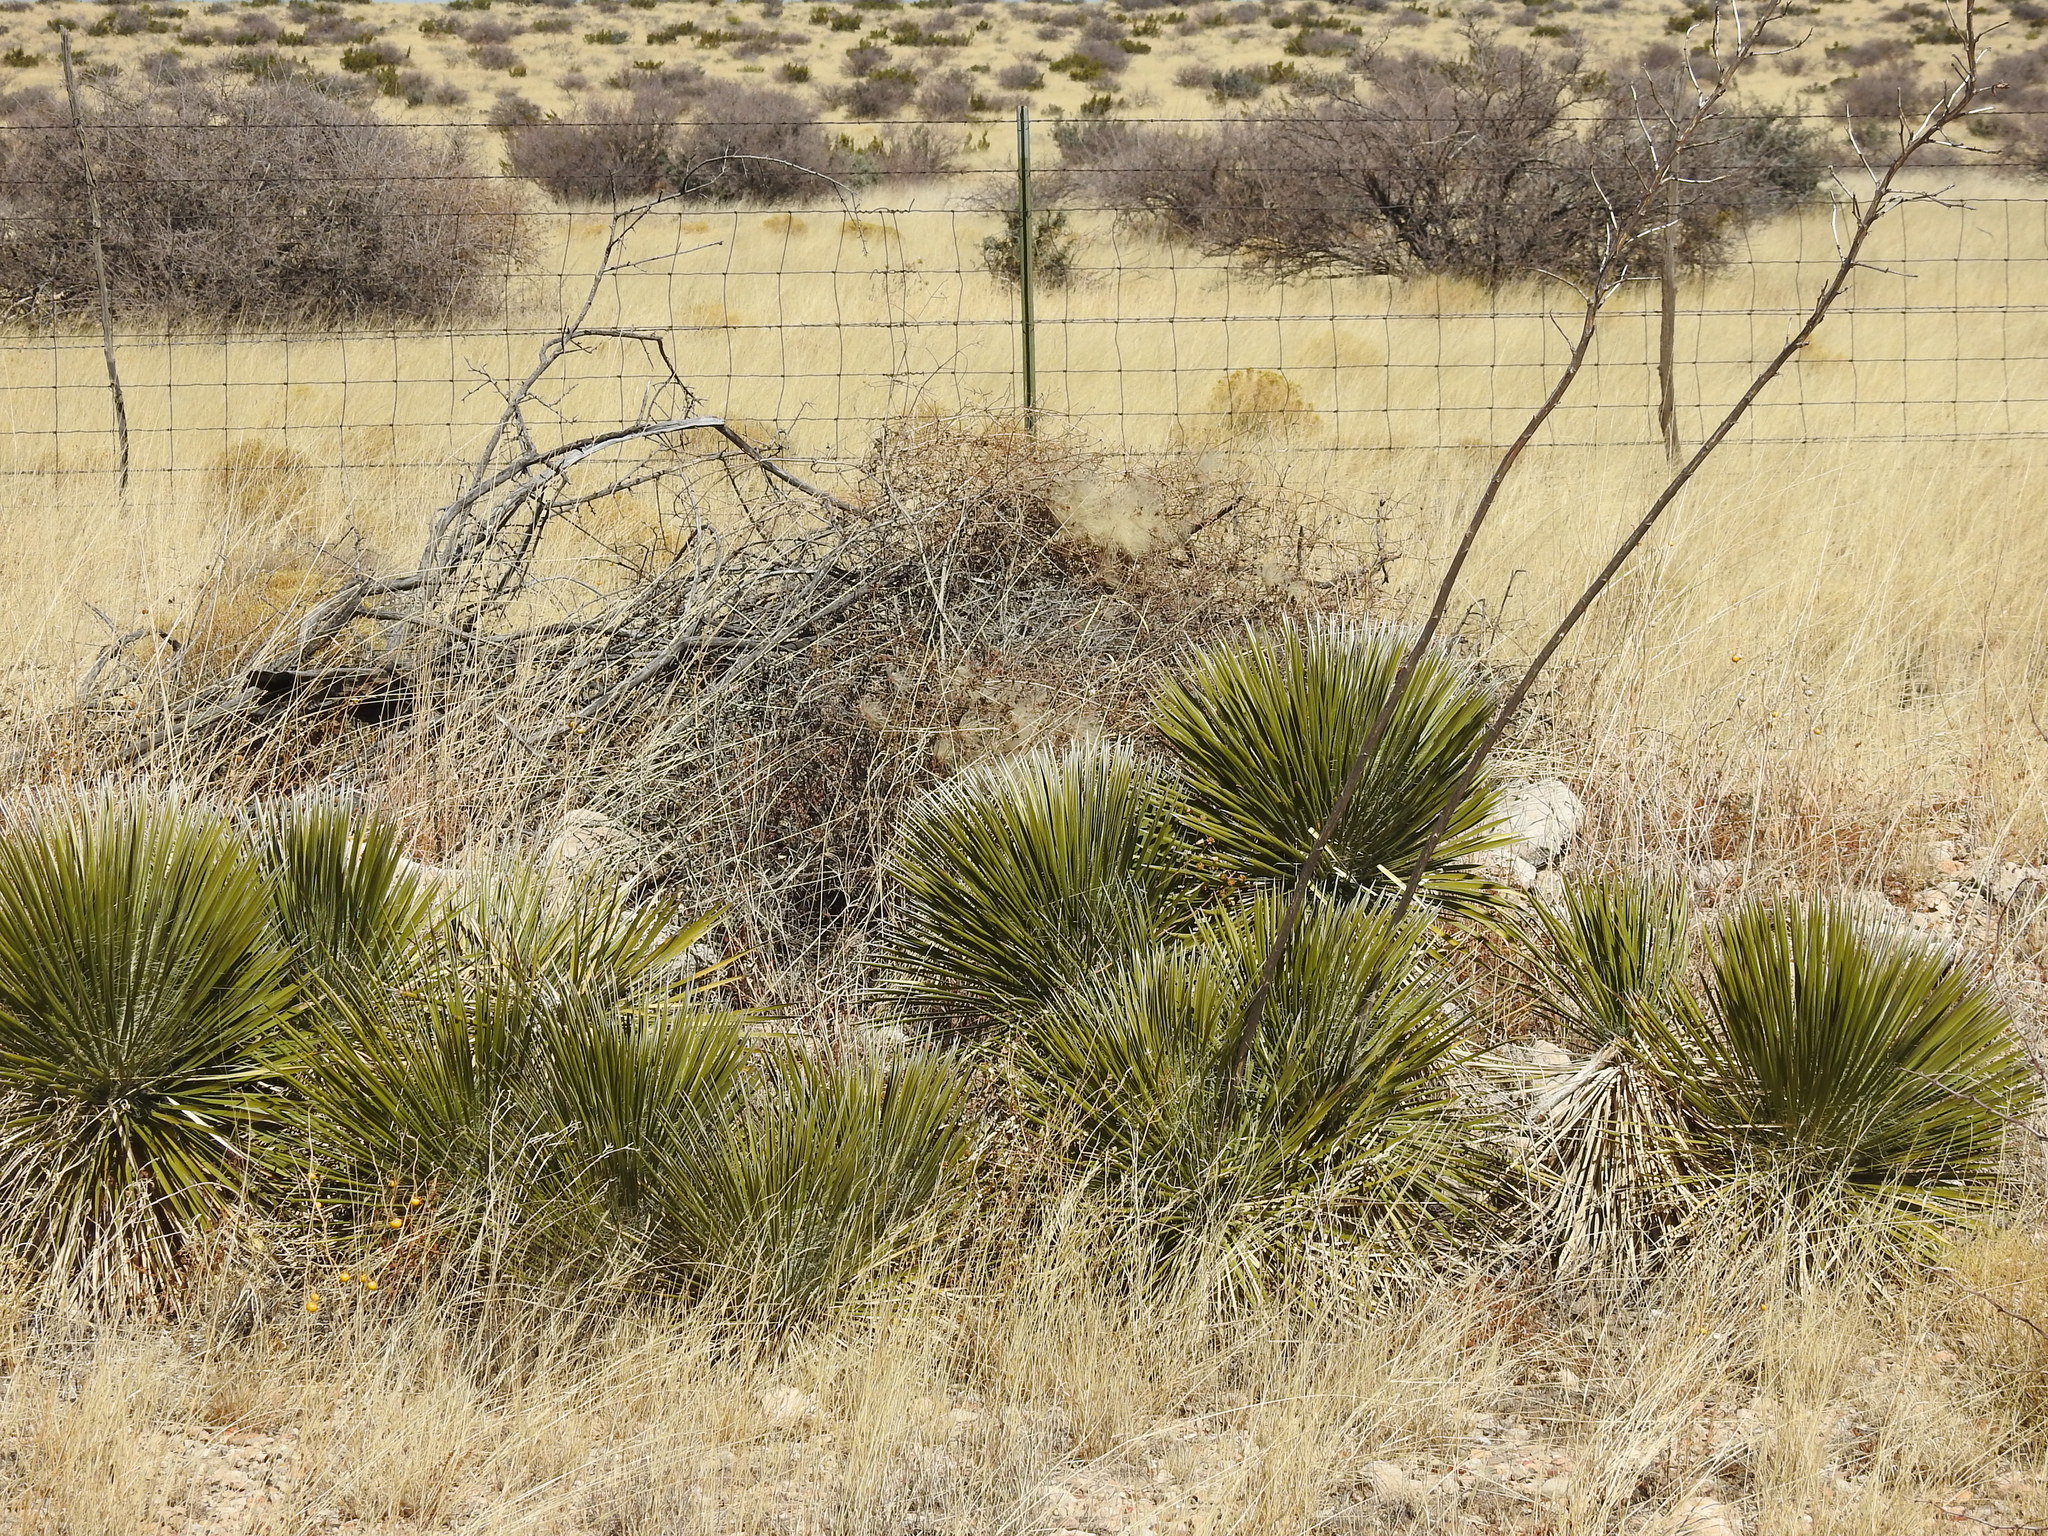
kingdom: Plantae
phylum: Tracheophyta
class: Liliopsida
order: Asparagales
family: Asparagaceae
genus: Yucca
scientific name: Yucca elata
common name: Palmella
